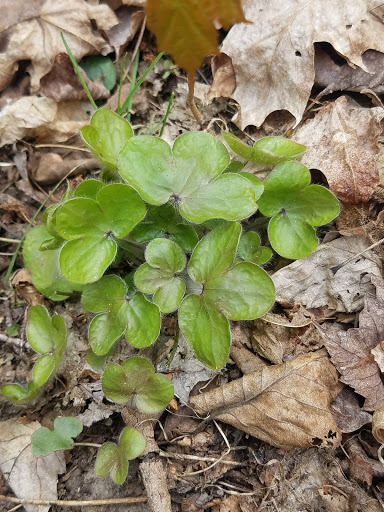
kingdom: Plantae
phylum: Tracheophyta
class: Magnoliopsida
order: Ranunculales
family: Ranunculaceae
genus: Hepatica
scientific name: Hepatica americana
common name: American hepatica
